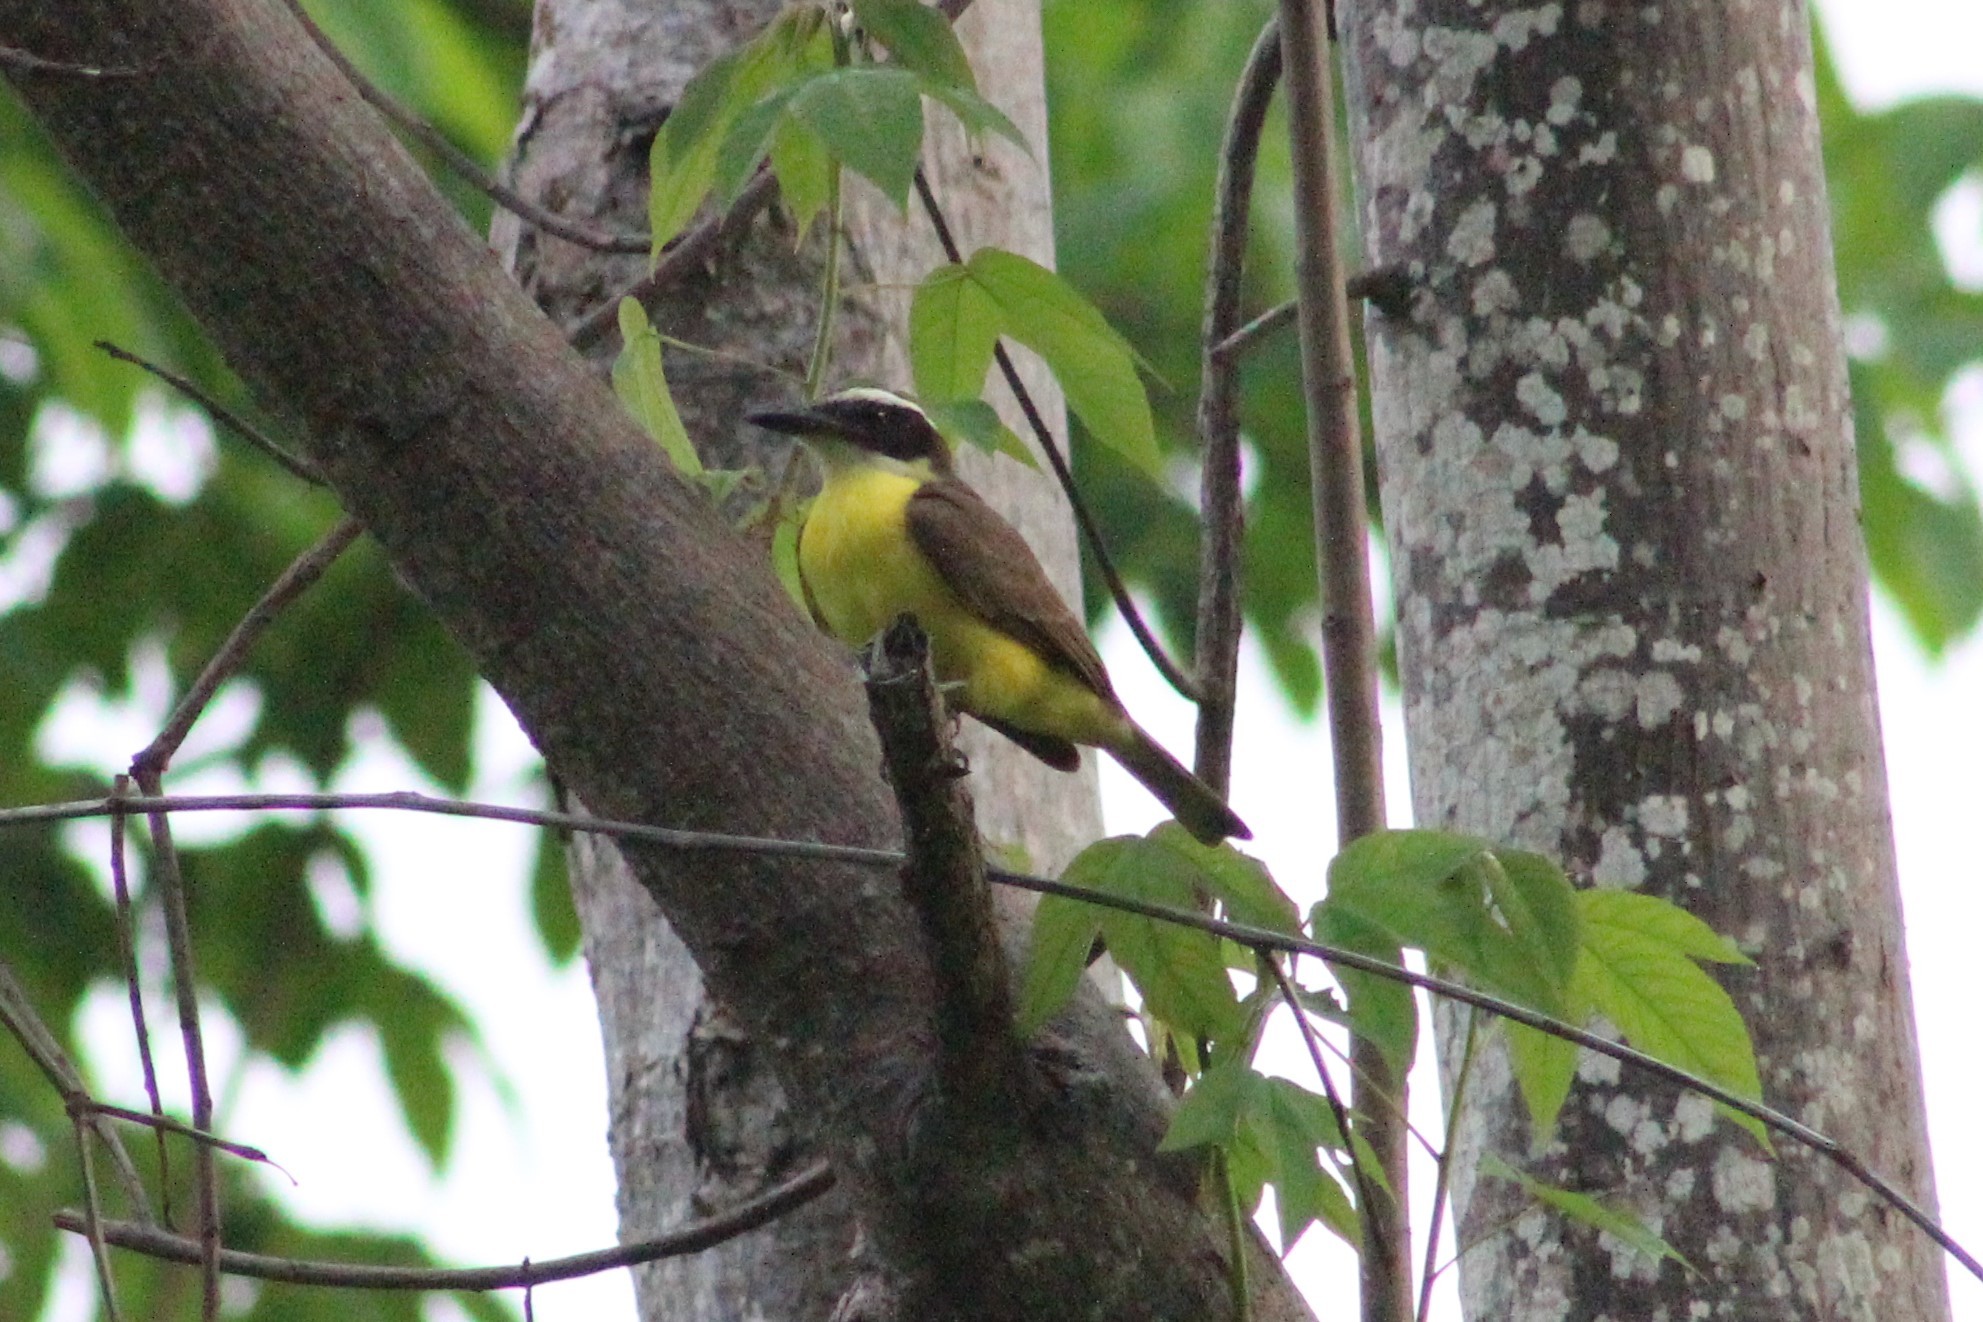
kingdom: Animalia
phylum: Chordata
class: Aves
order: Passeriformes
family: Tyrannidae
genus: Megarynchus
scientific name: Megarynchus pitangua
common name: Boat-billed flycatcher
